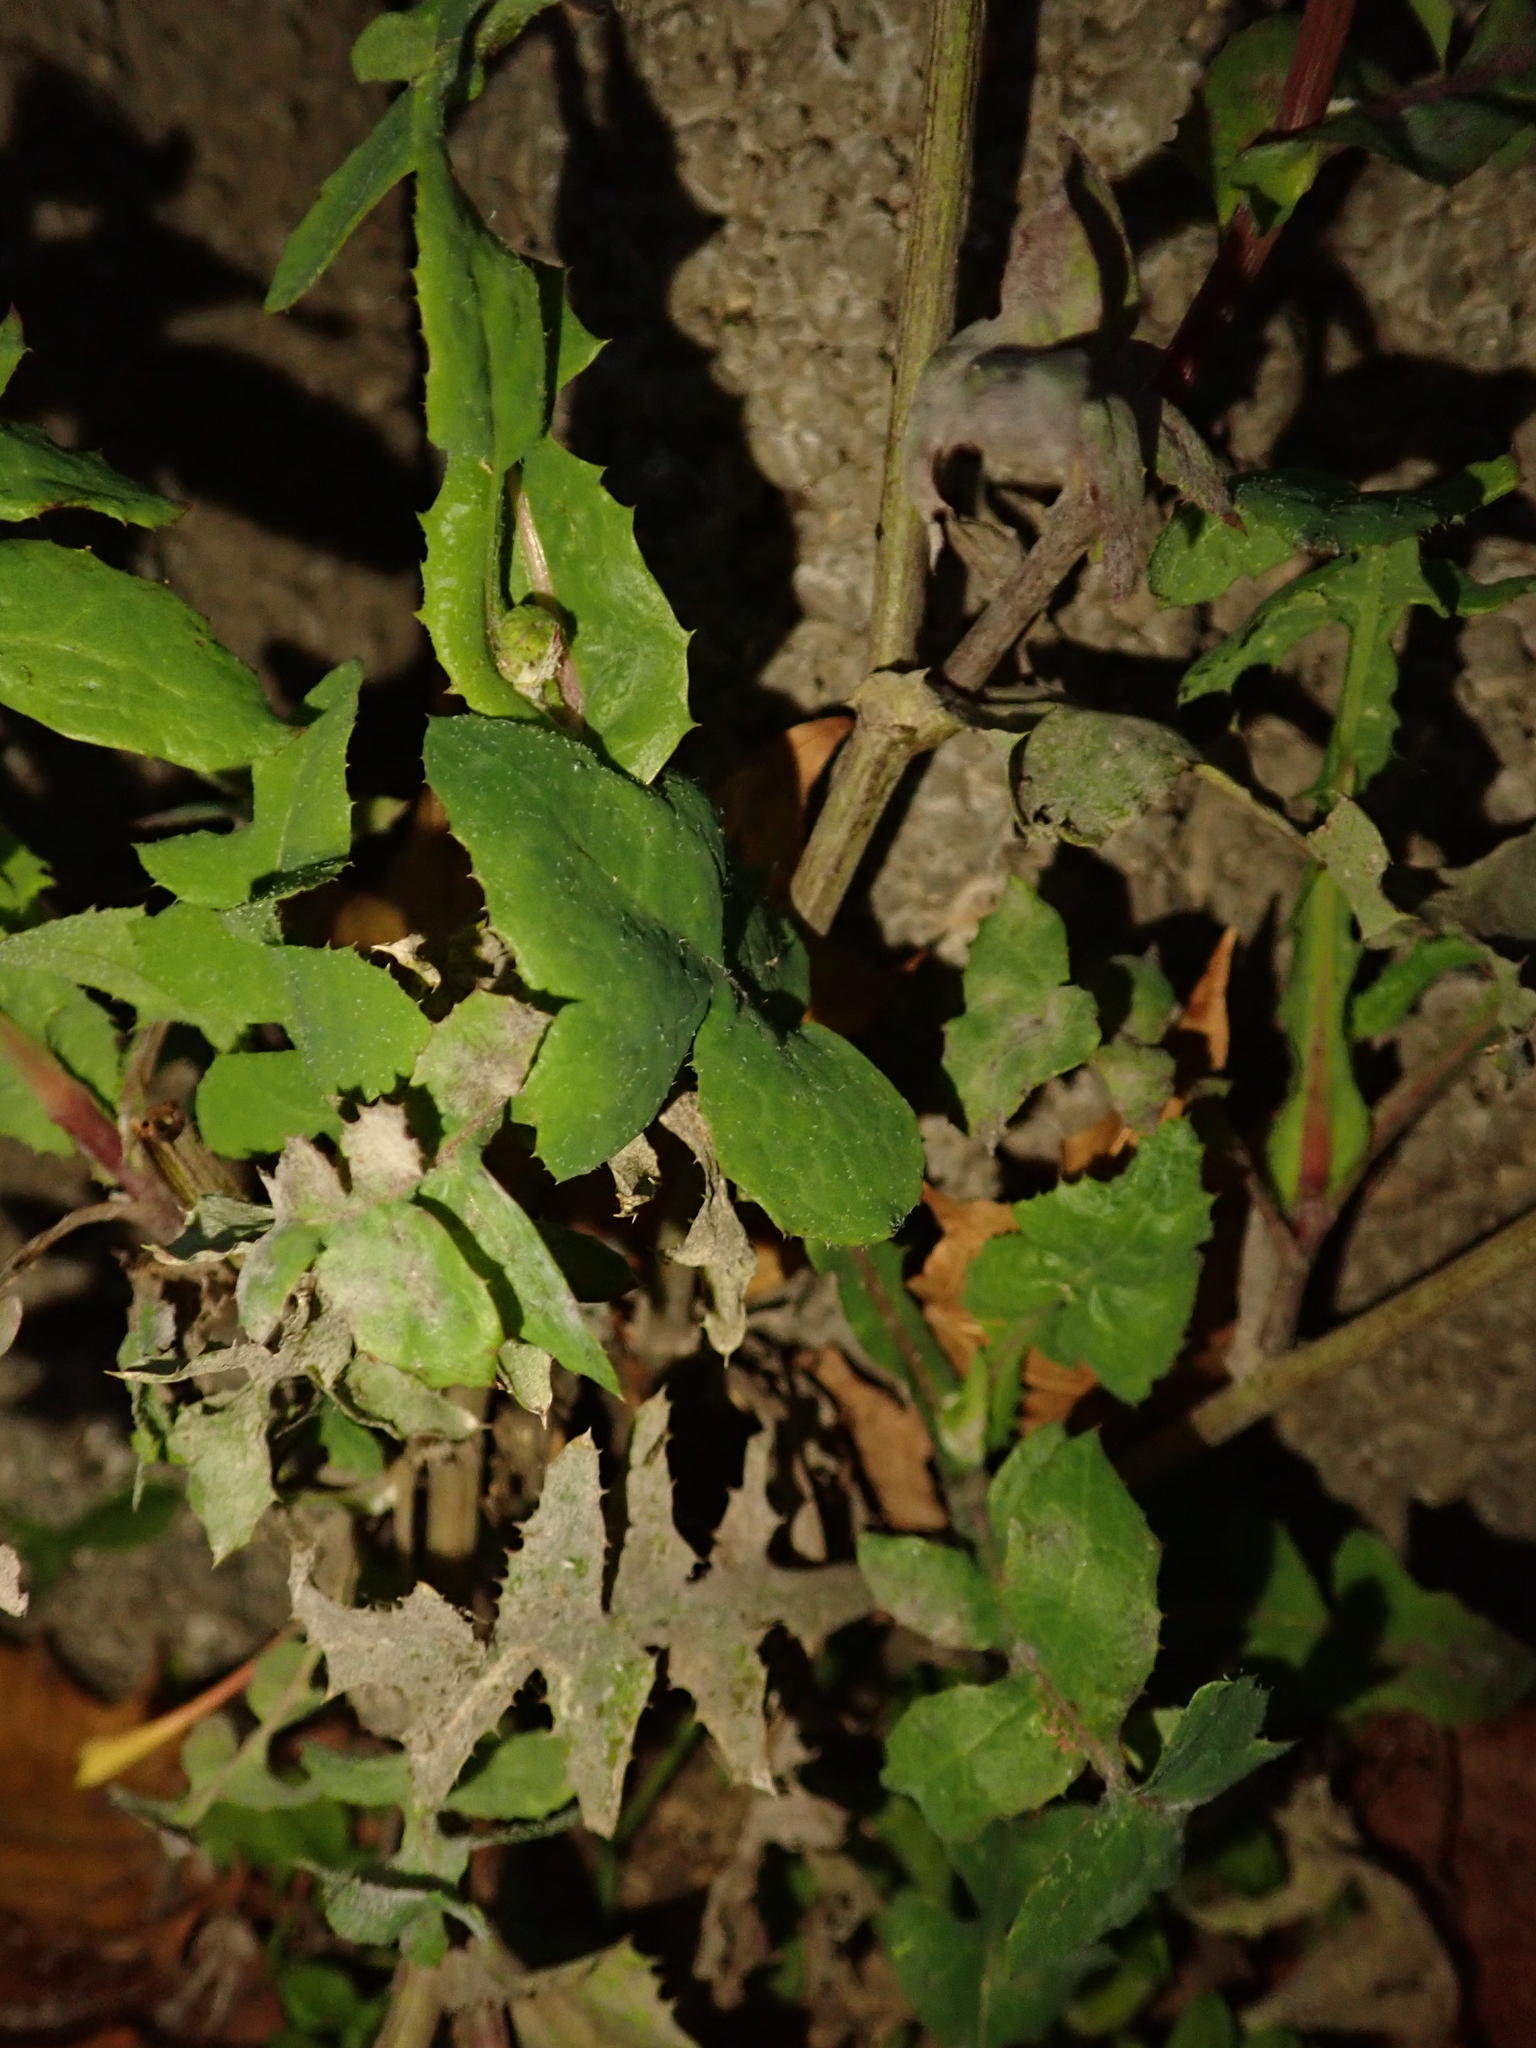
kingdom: Plantae
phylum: Tracheophyta
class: Magnoliopsida
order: Asterales
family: Asteraceae
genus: Sonchus
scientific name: Sonchus oleraceus
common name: Common sowthistle
